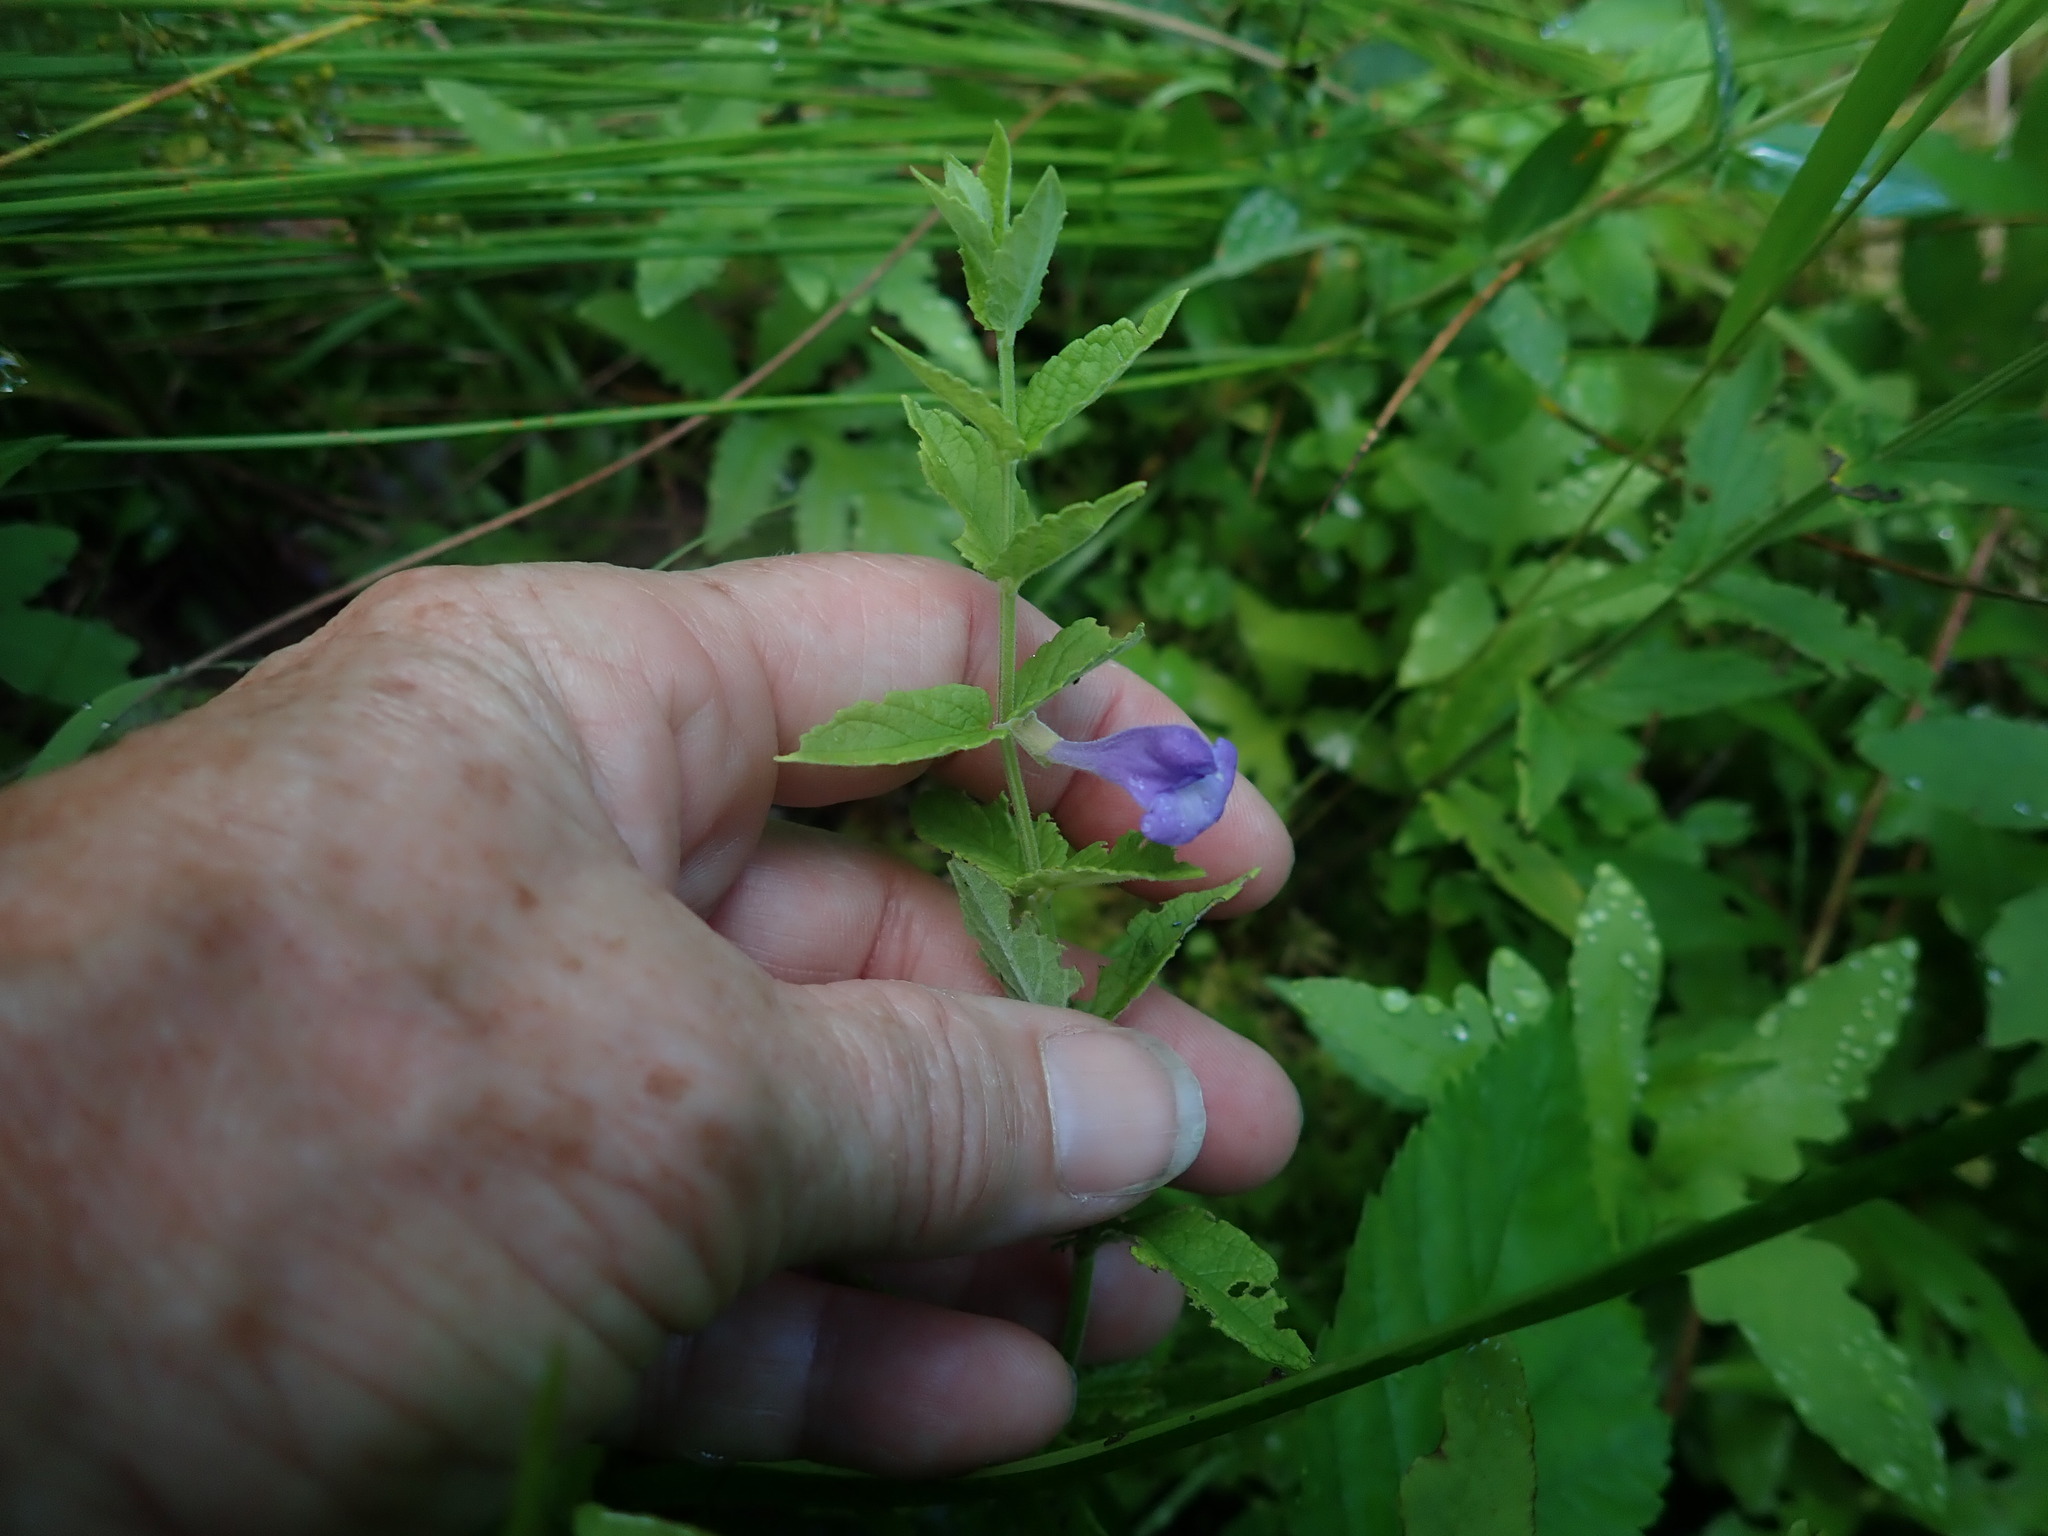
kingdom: Plantae
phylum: Tracheophyta
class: Magnoliopsida
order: Lamiales
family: Lamiaceae
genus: Scutellaria
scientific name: Scutellaria galericulata
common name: Skullcap
